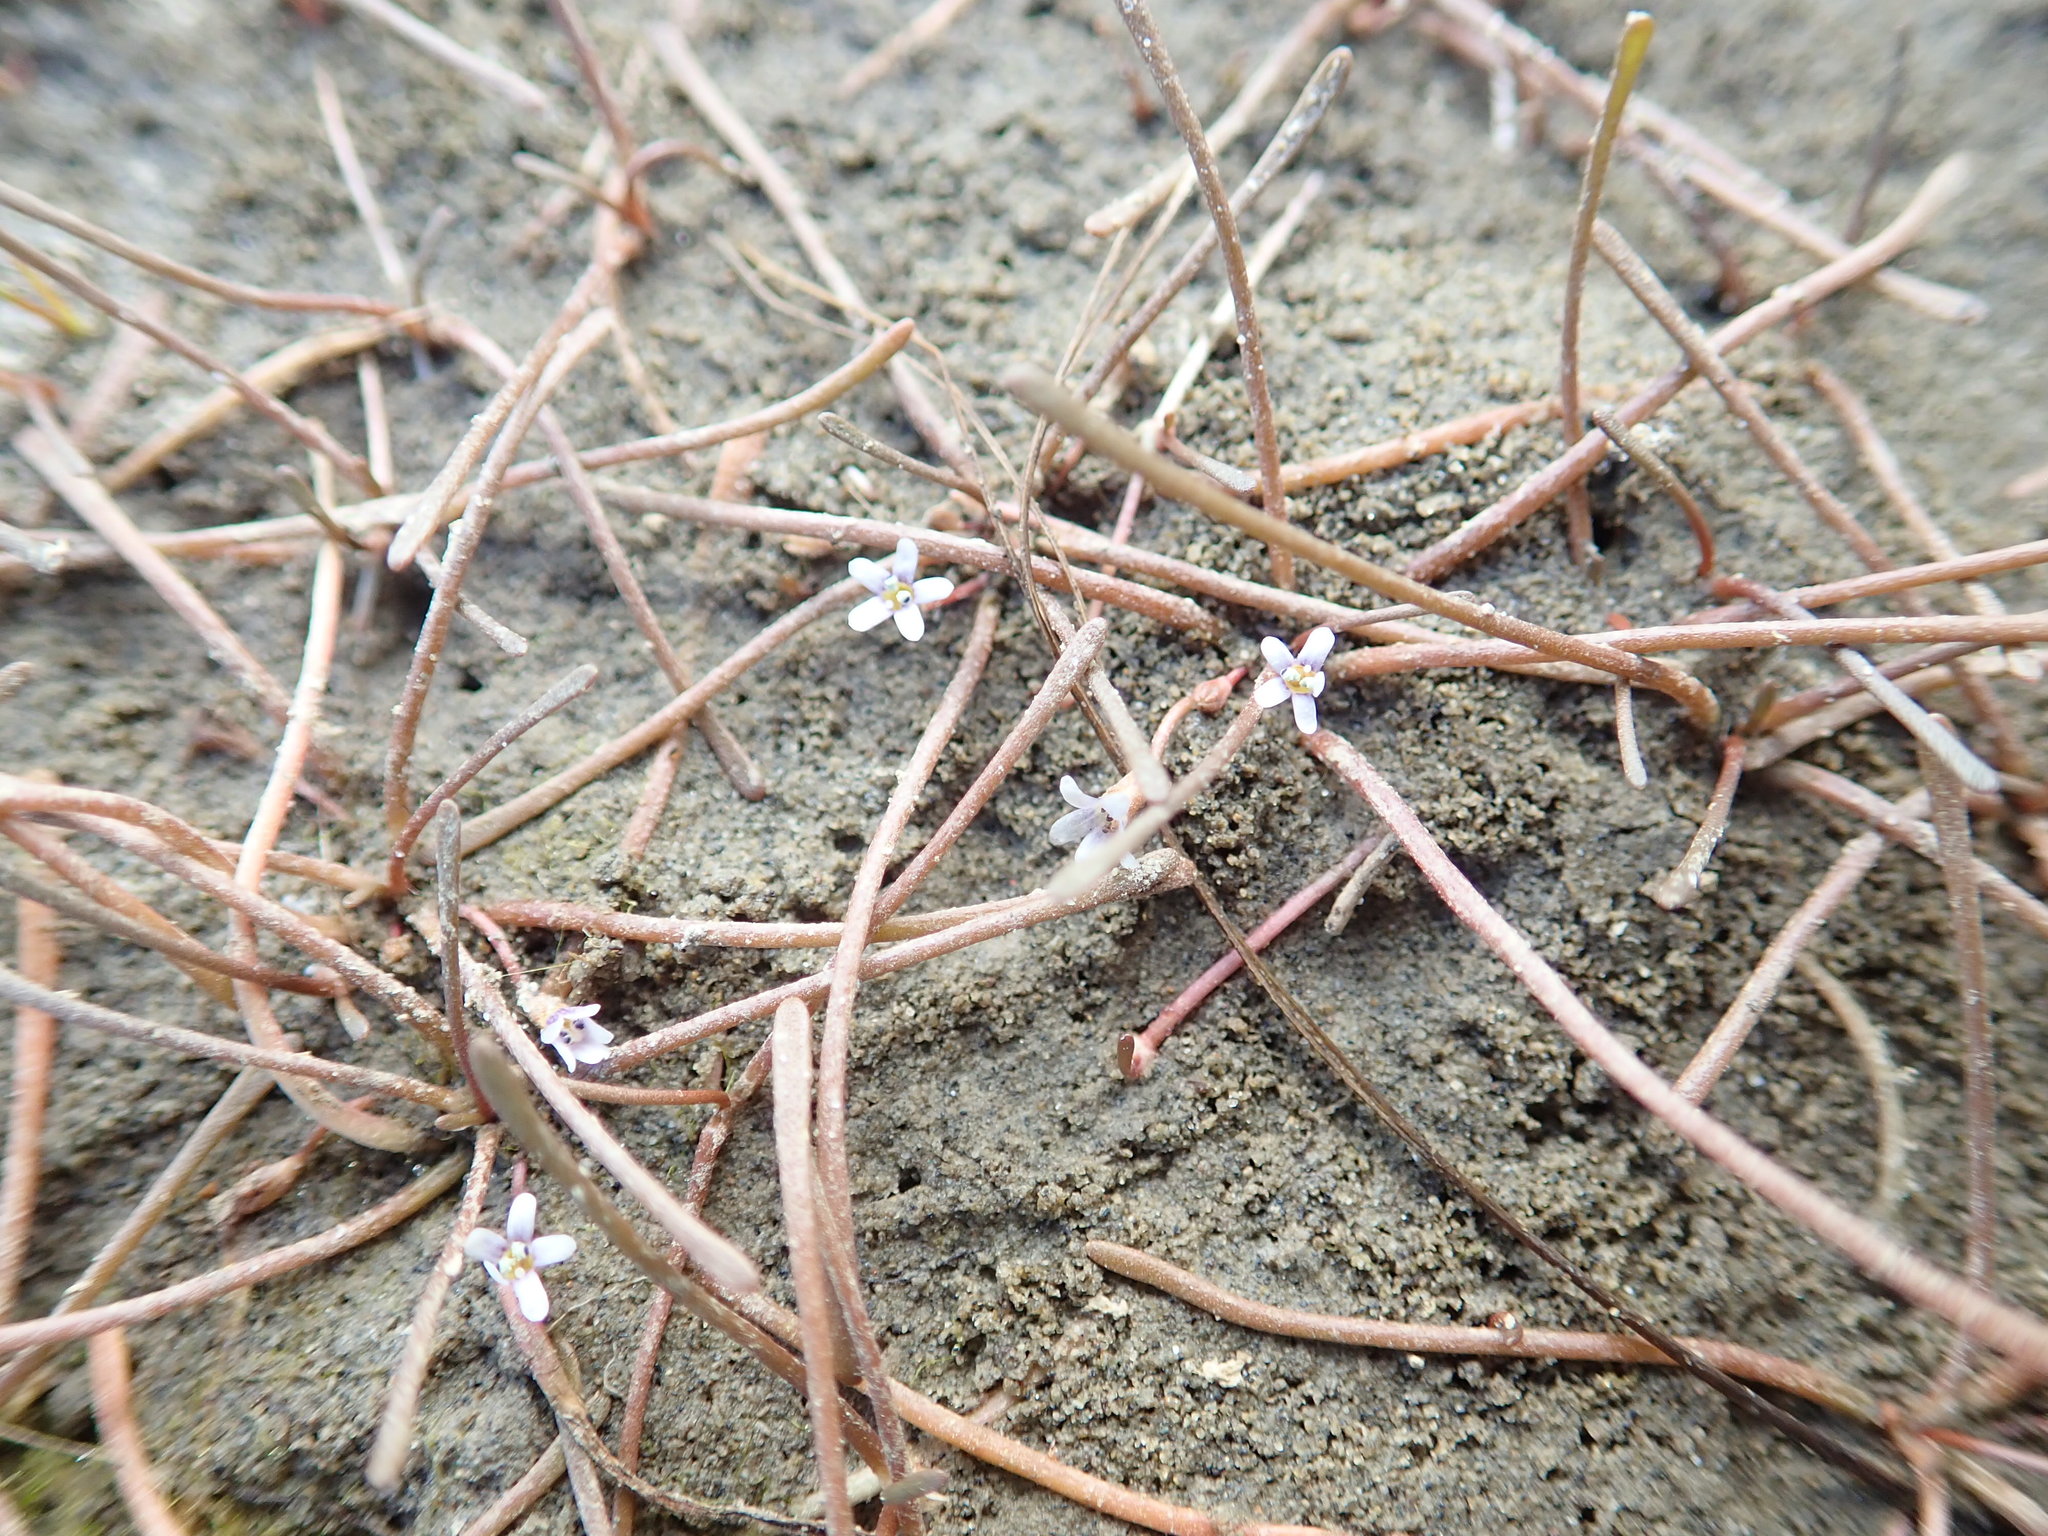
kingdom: Plantae
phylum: Tracheophyta
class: Magnoliopsida
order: Lamiales
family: Scrophulariaceae
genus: Limosella
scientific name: Limosella australis
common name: Welsh mudwort
